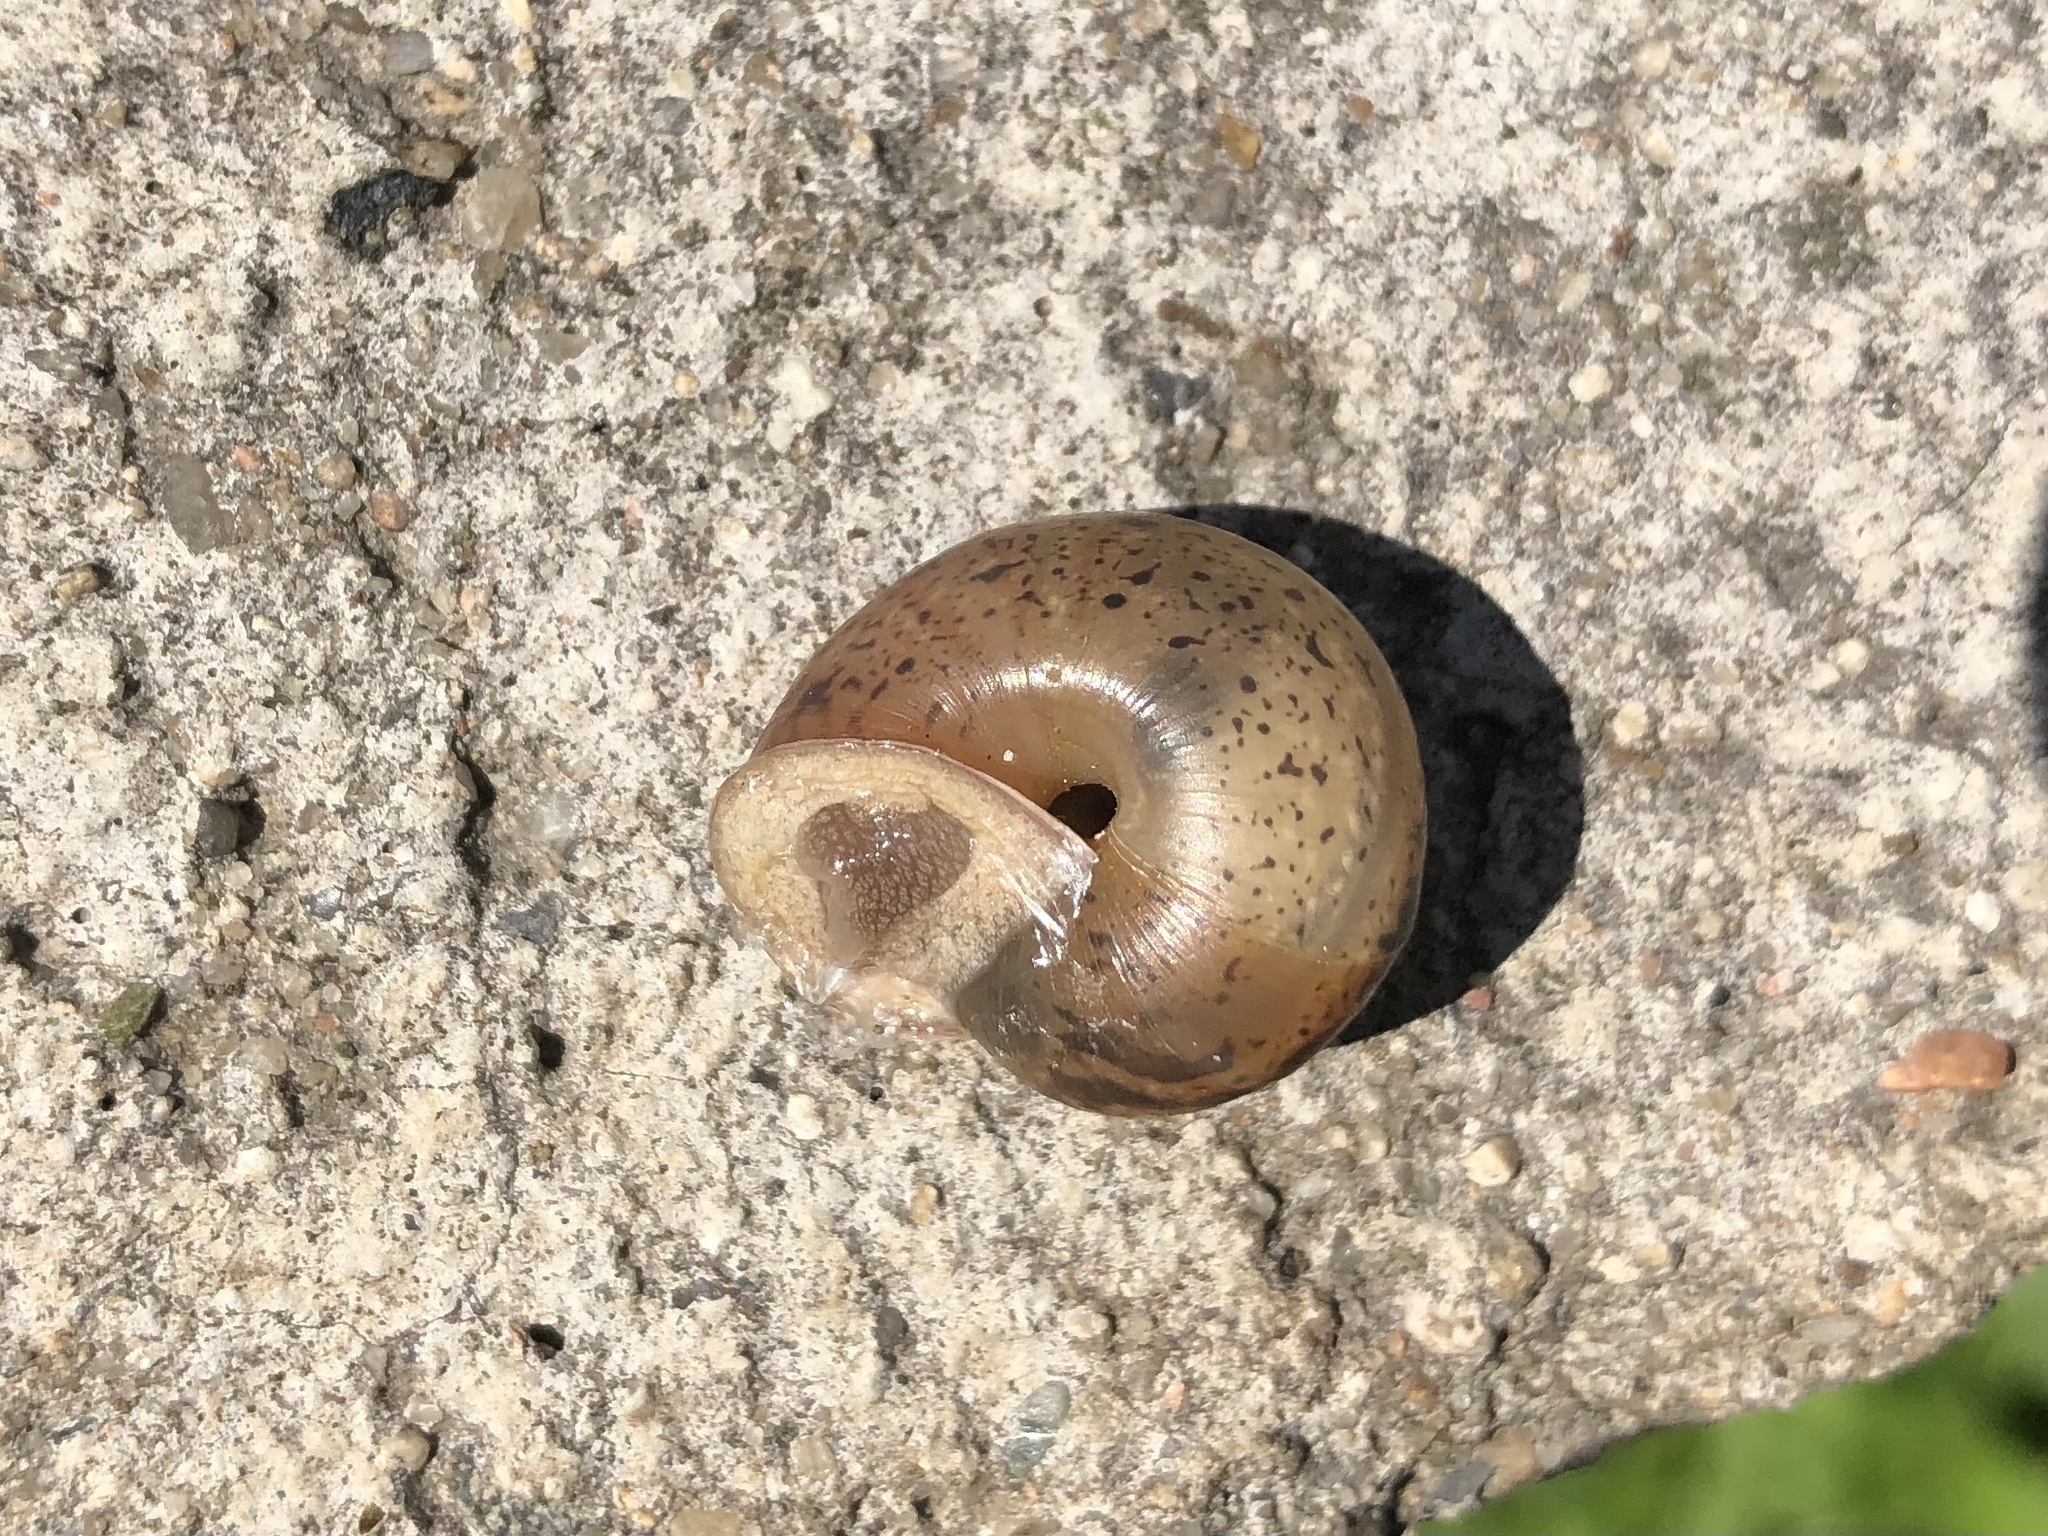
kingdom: Animalia
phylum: Mollusca
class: Gastropoda
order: Stylommatophora
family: Camaenidae
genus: Fruticicola
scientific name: Fruticicola fruticum
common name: Bush snail
